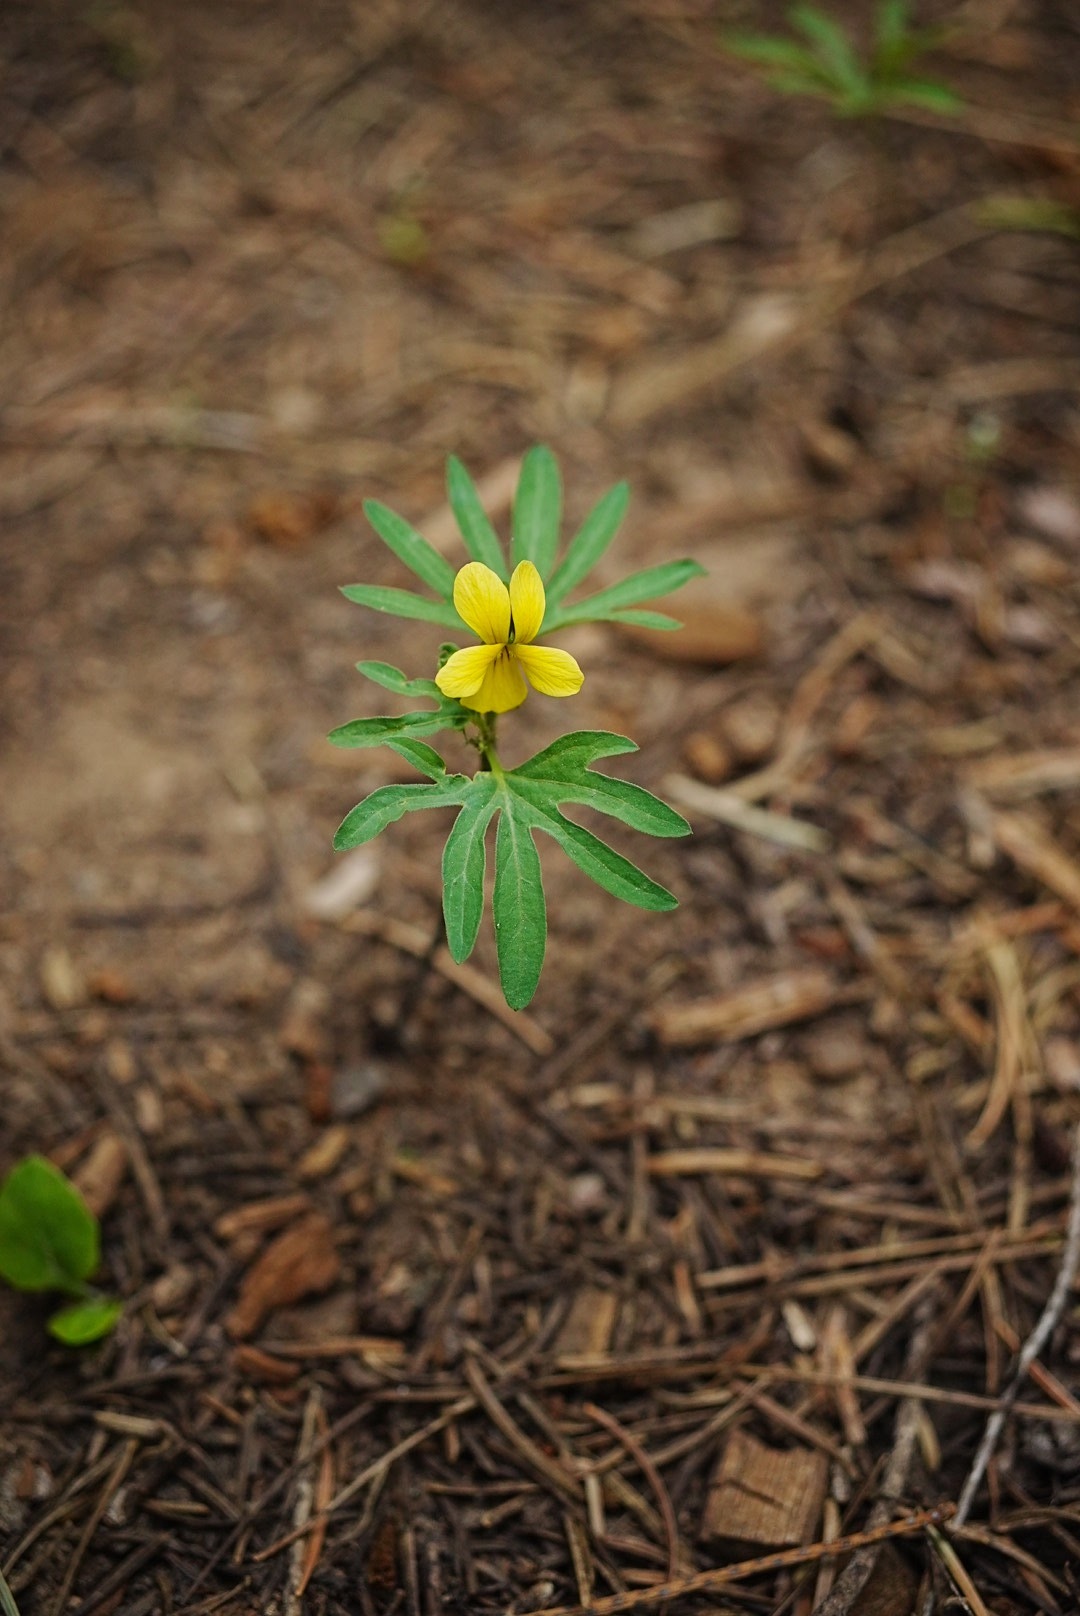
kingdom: Plantae
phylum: Tracheophyta
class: Magnoliopsida
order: Malpighiales
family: Violaceae
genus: Viola
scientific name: Viola lobata
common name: Pine violet
